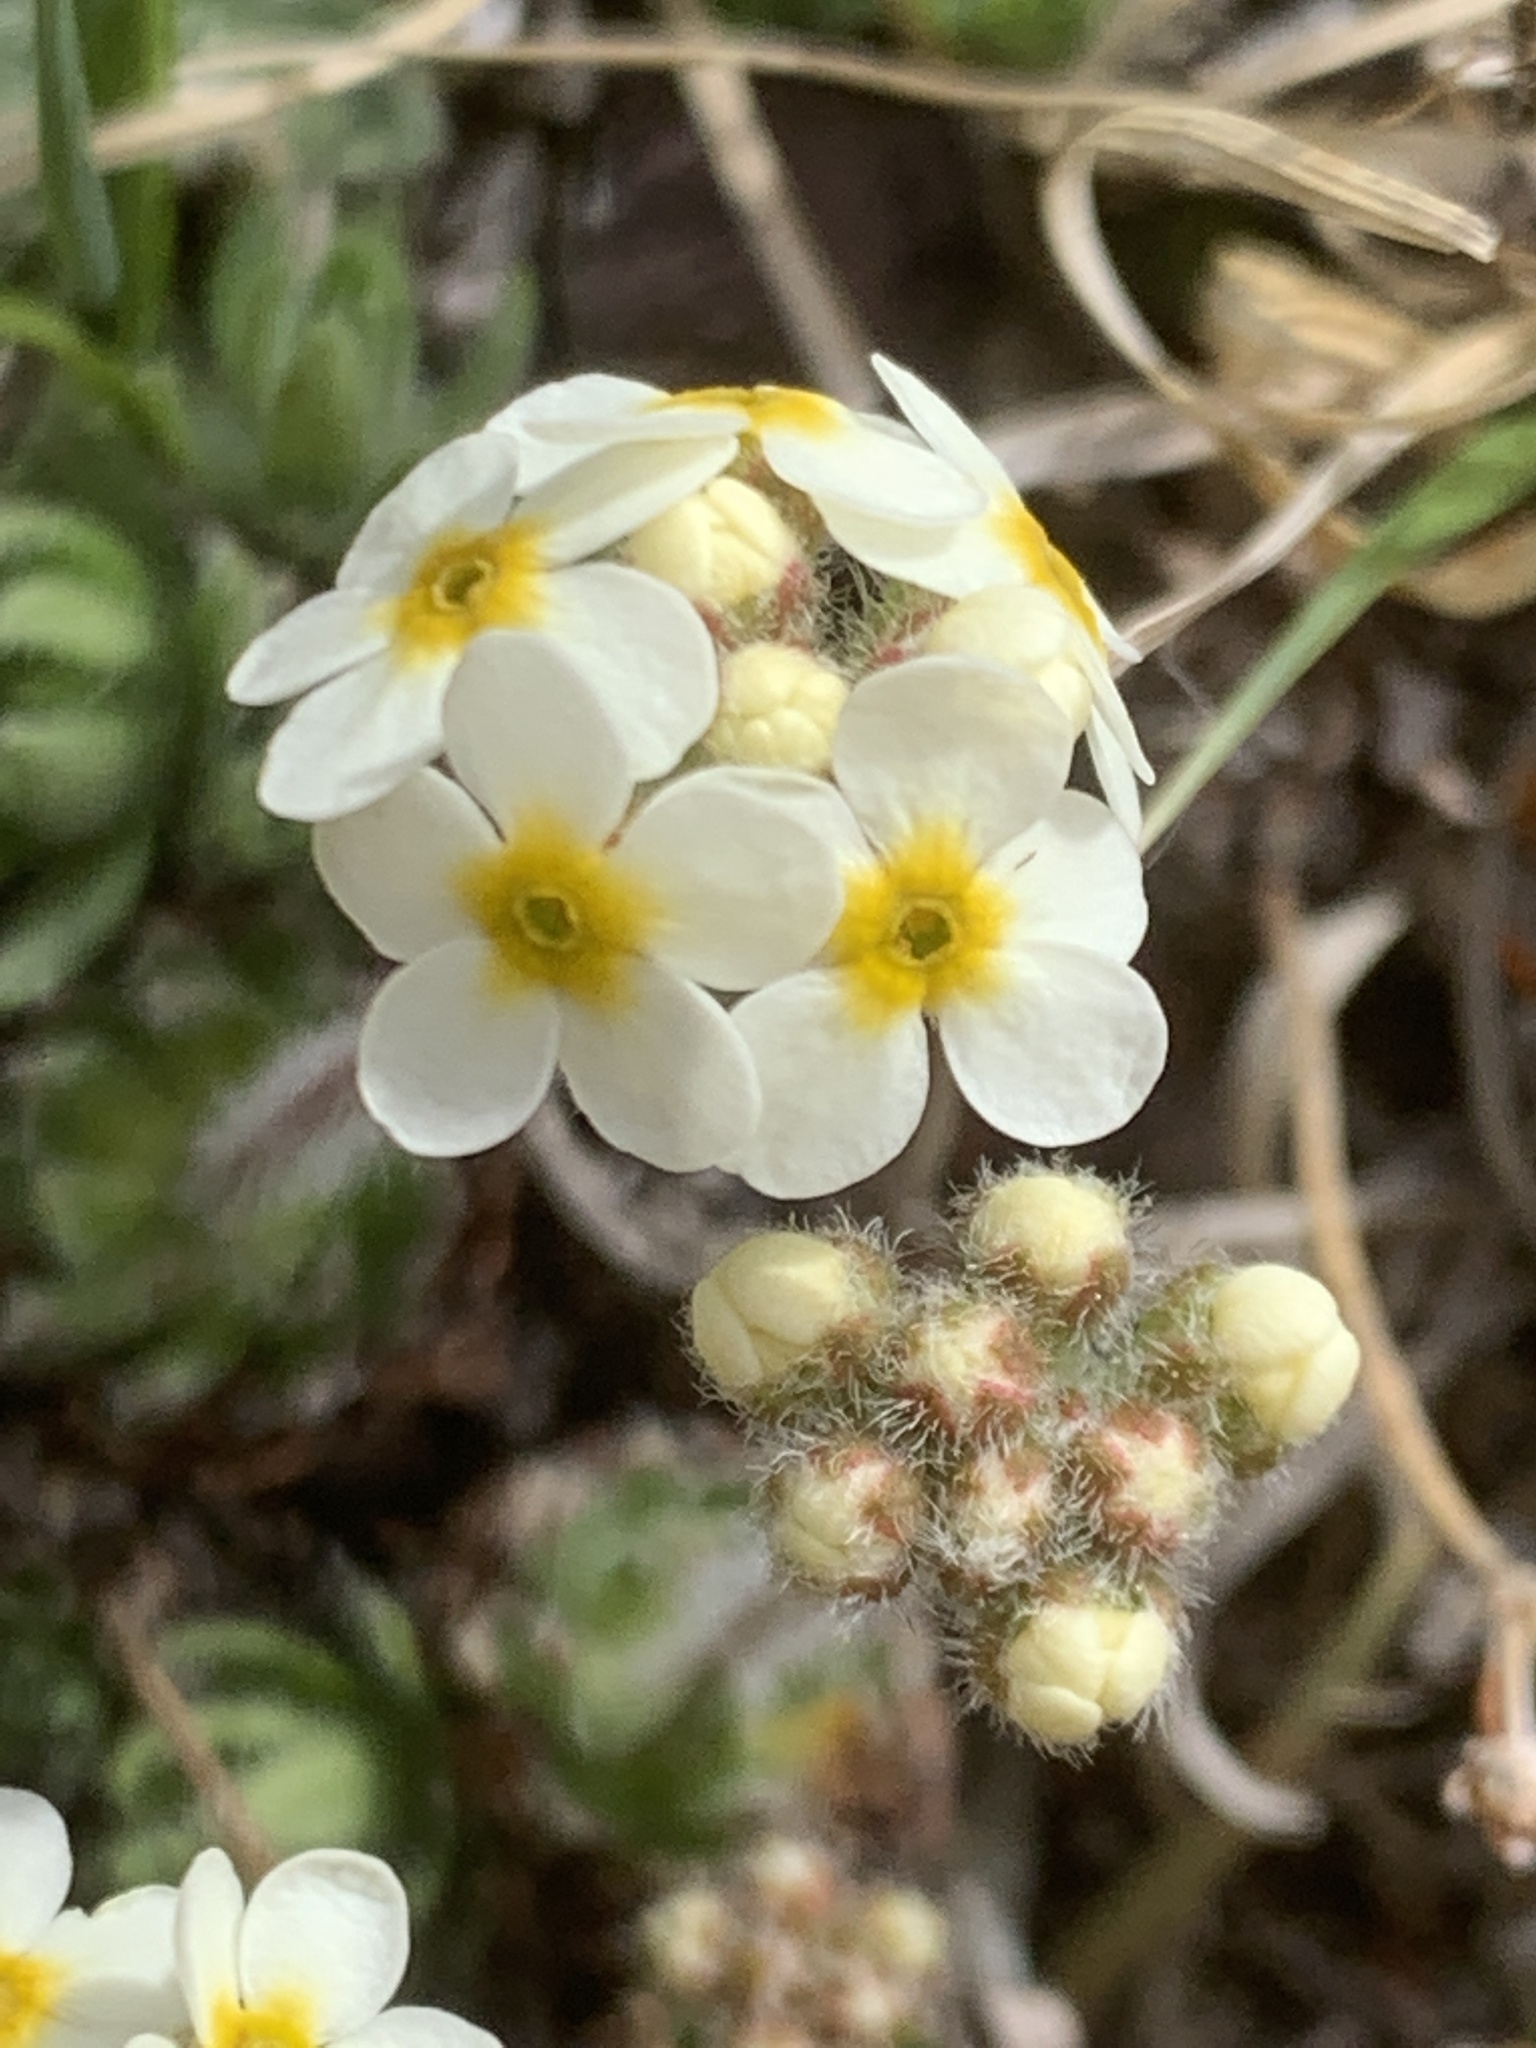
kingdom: Plantae
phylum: Tracheophyta
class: Magnoliopsida
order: Ericales
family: Primulaceae
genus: Androsace
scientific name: Androsace chamaejasme
